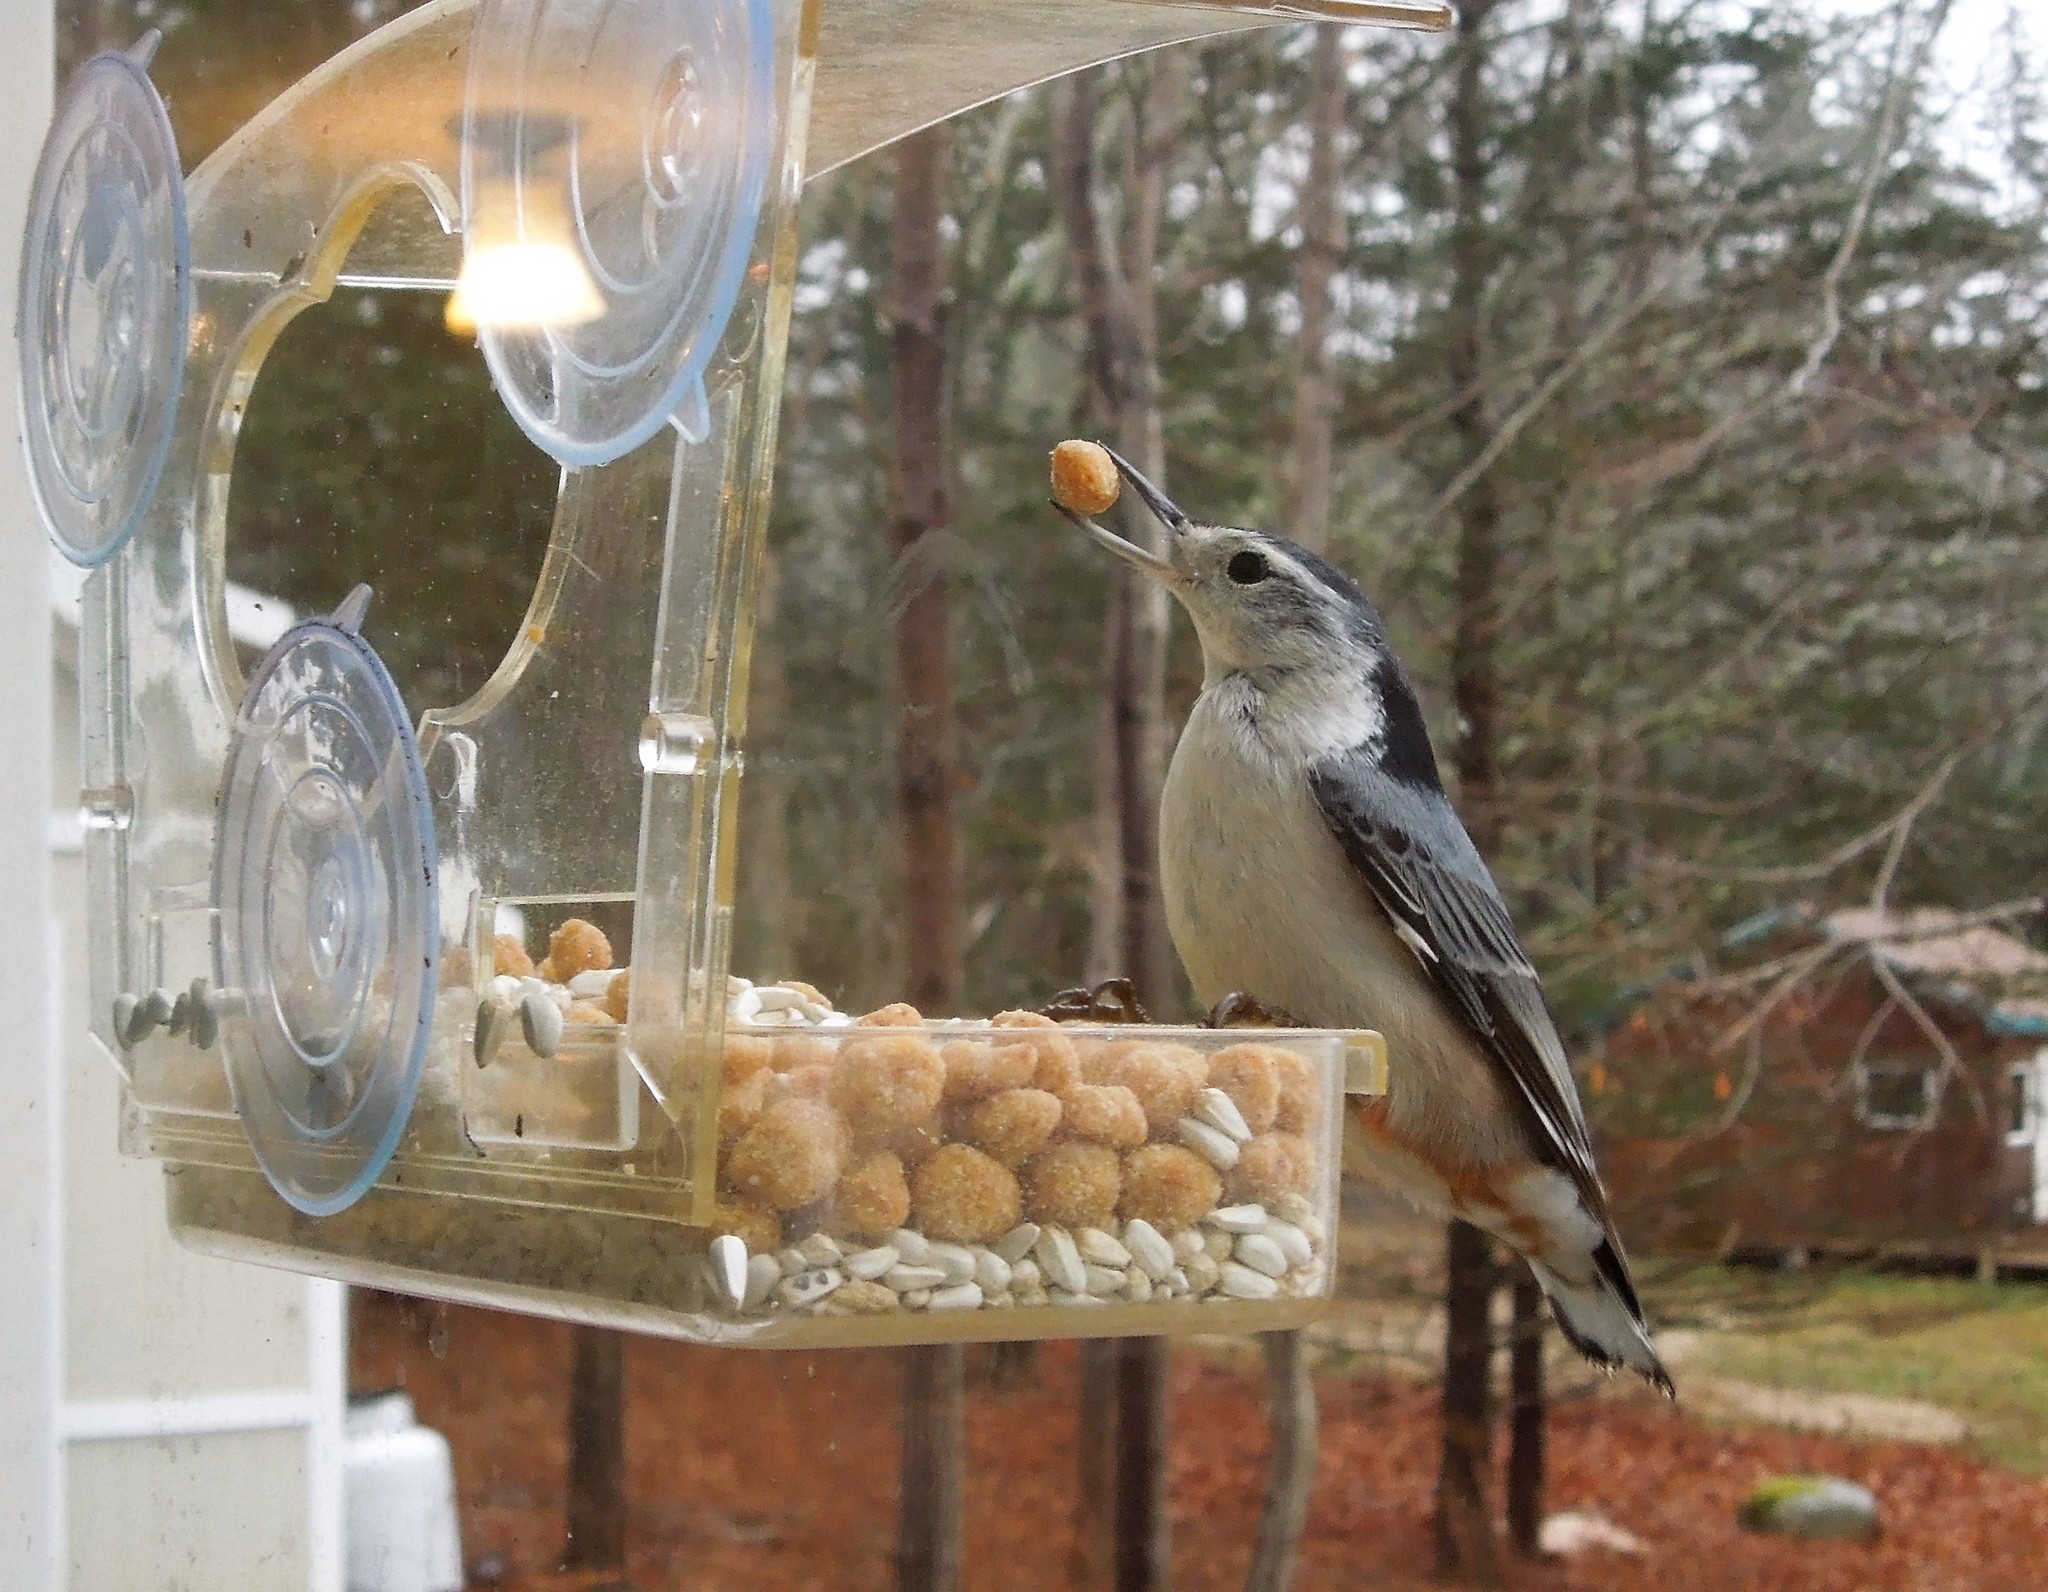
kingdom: Animalia
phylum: Chordata
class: Aves
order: Passeriformes
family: Sittidae
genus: Sitta
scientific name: Sitta carolinensis
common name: White-breasted nuthatch
